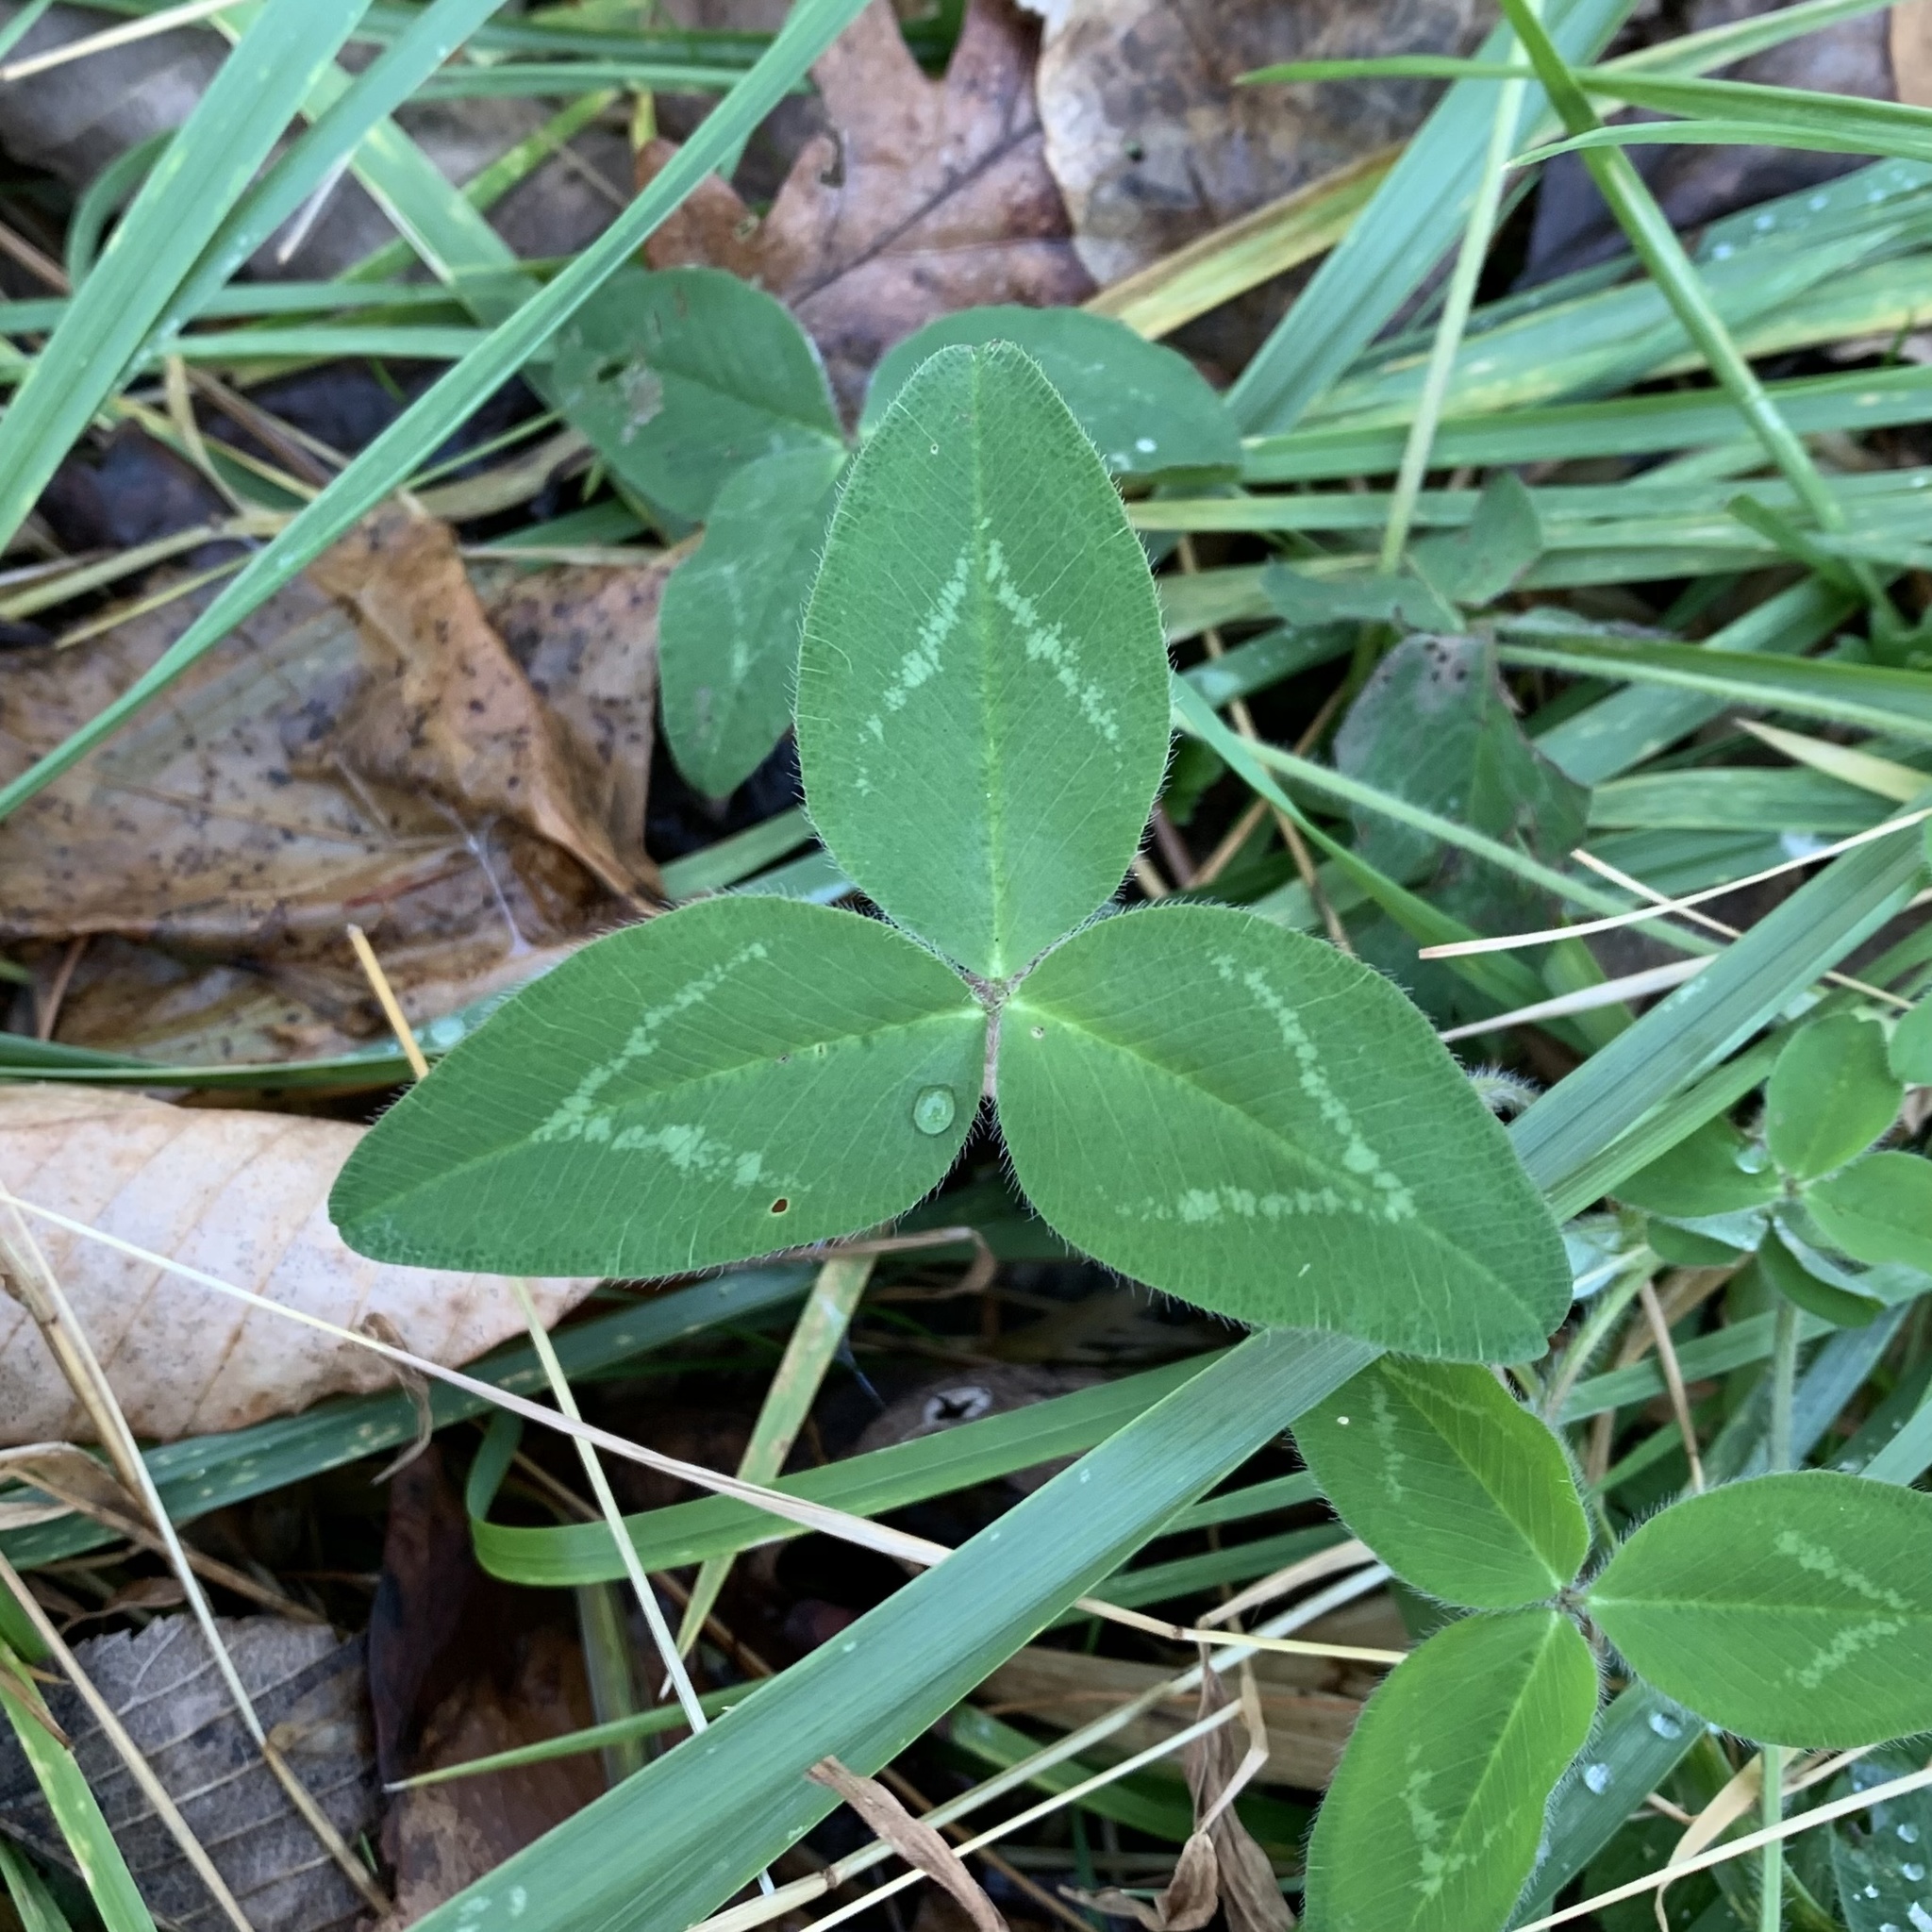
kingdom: Plantae
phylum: Tracheophyta
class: Magnoliopsida
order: Fabales
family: Fabaceae
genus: Trifolium
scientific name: Trifolium pratense
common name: Red clover
